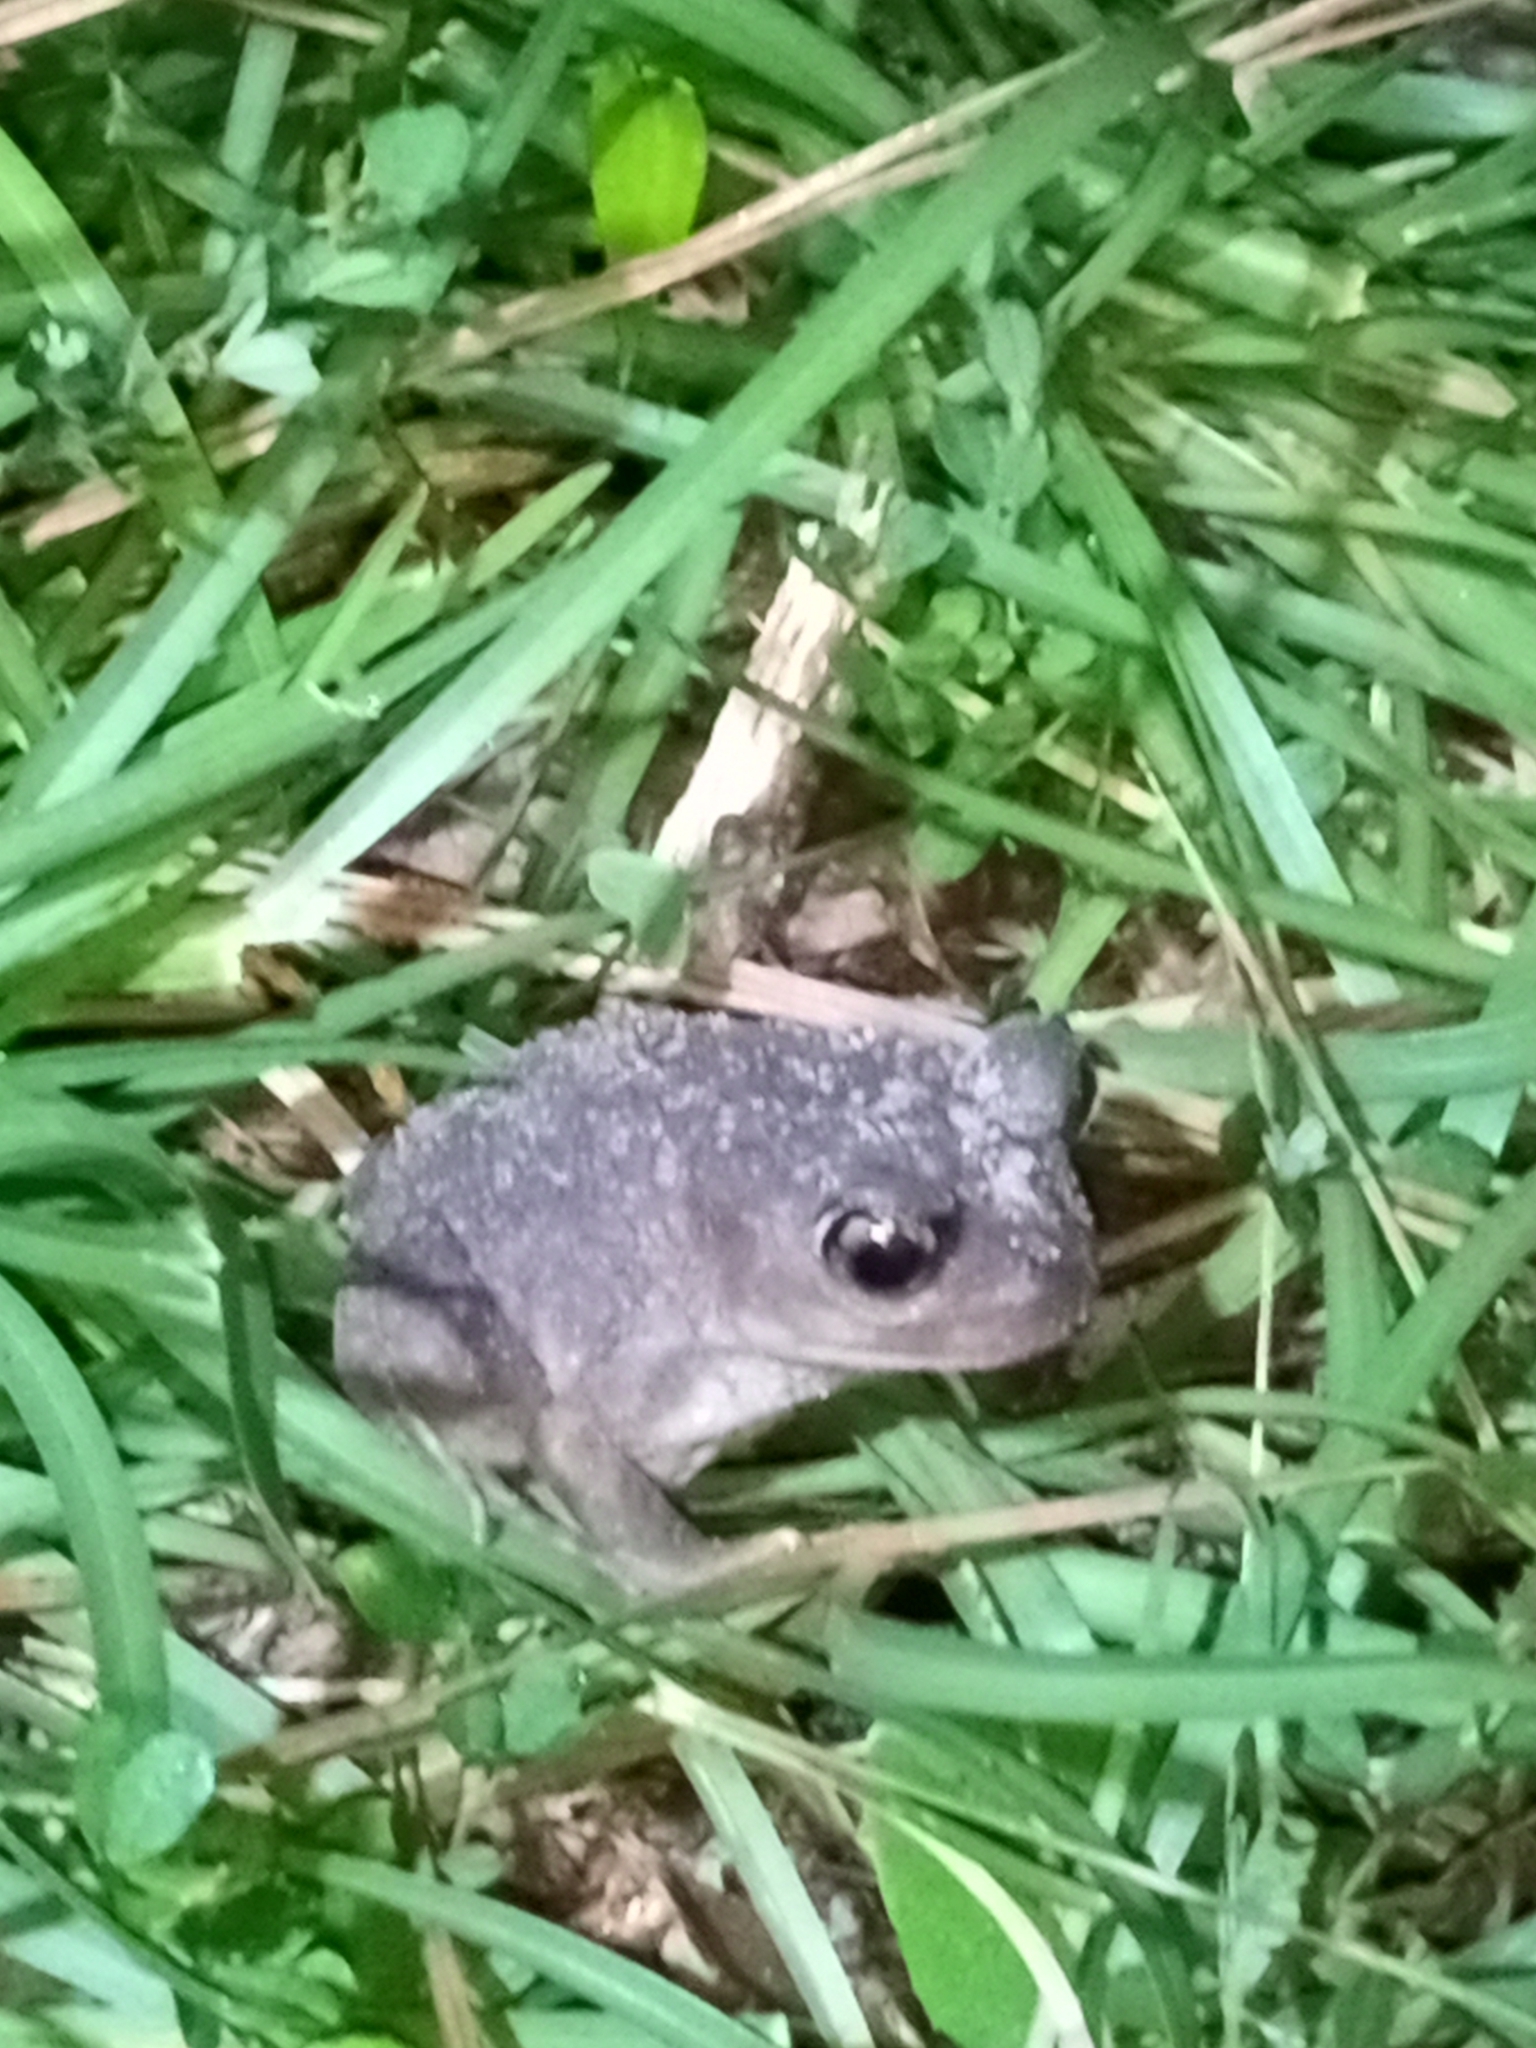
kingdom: Animalia
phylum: Chordata
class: Amphibia
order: Anura
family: Scaphiopodidae
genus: Scaphiopus
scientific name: Scaphiopus holbrookii
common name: Eastern spadefoot toad
